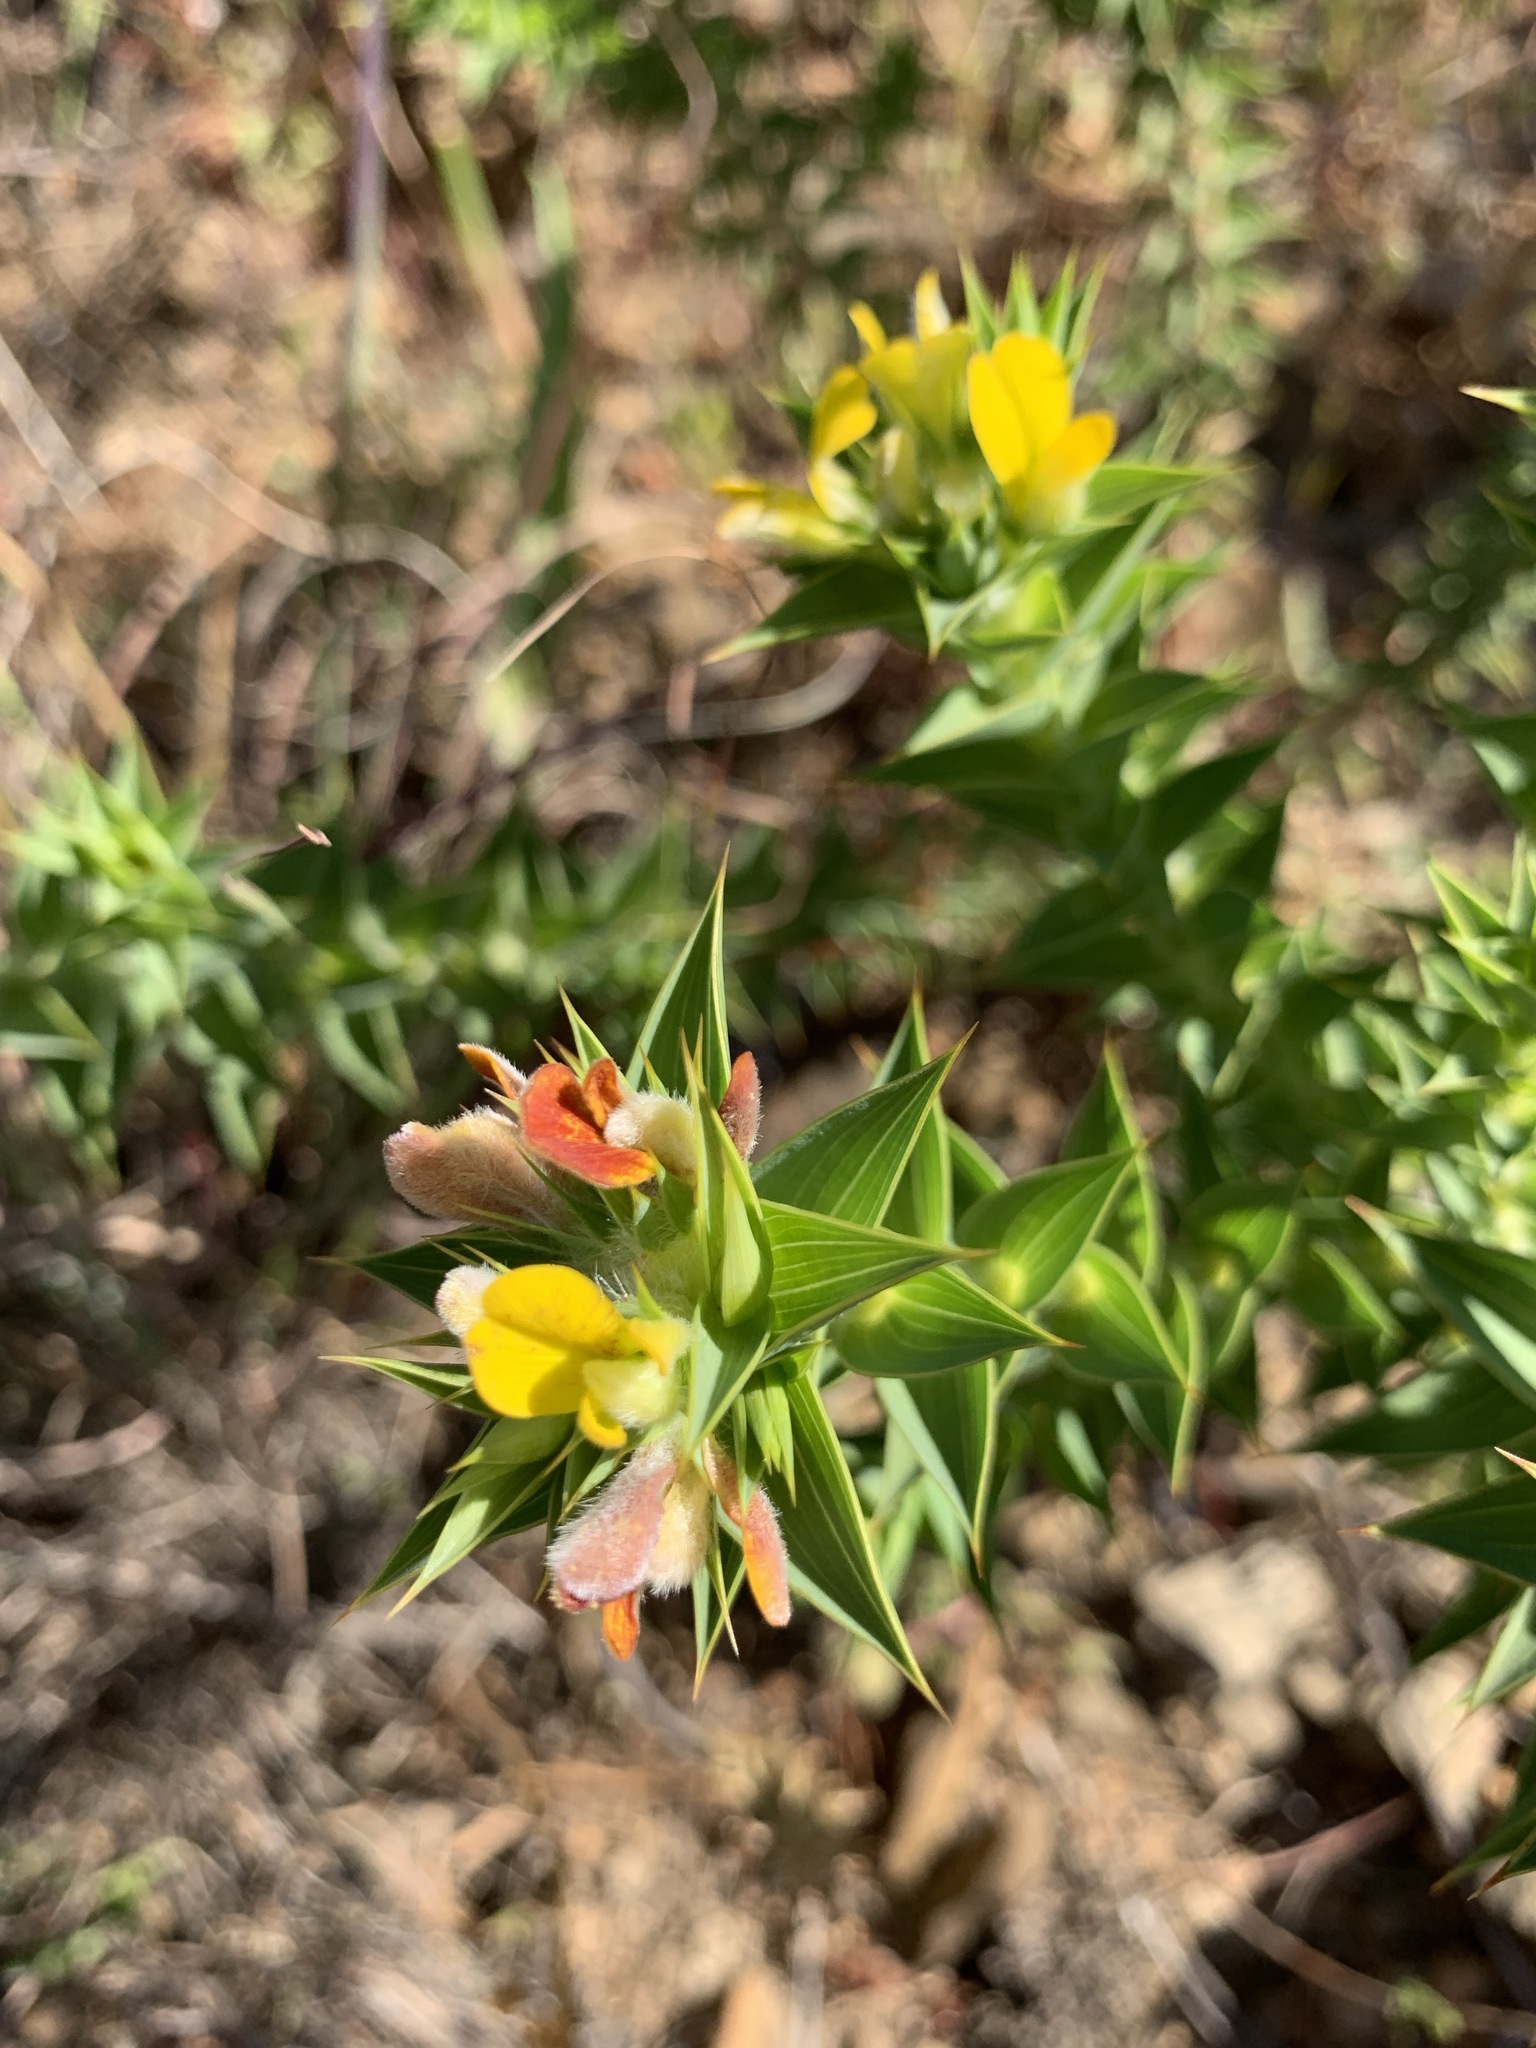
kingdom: Plantae
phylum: Tracheophyta
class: Magnoliopsida
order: Fabales
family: Fabaceae
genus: Aspalathus
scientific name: Aspalathus cordata
